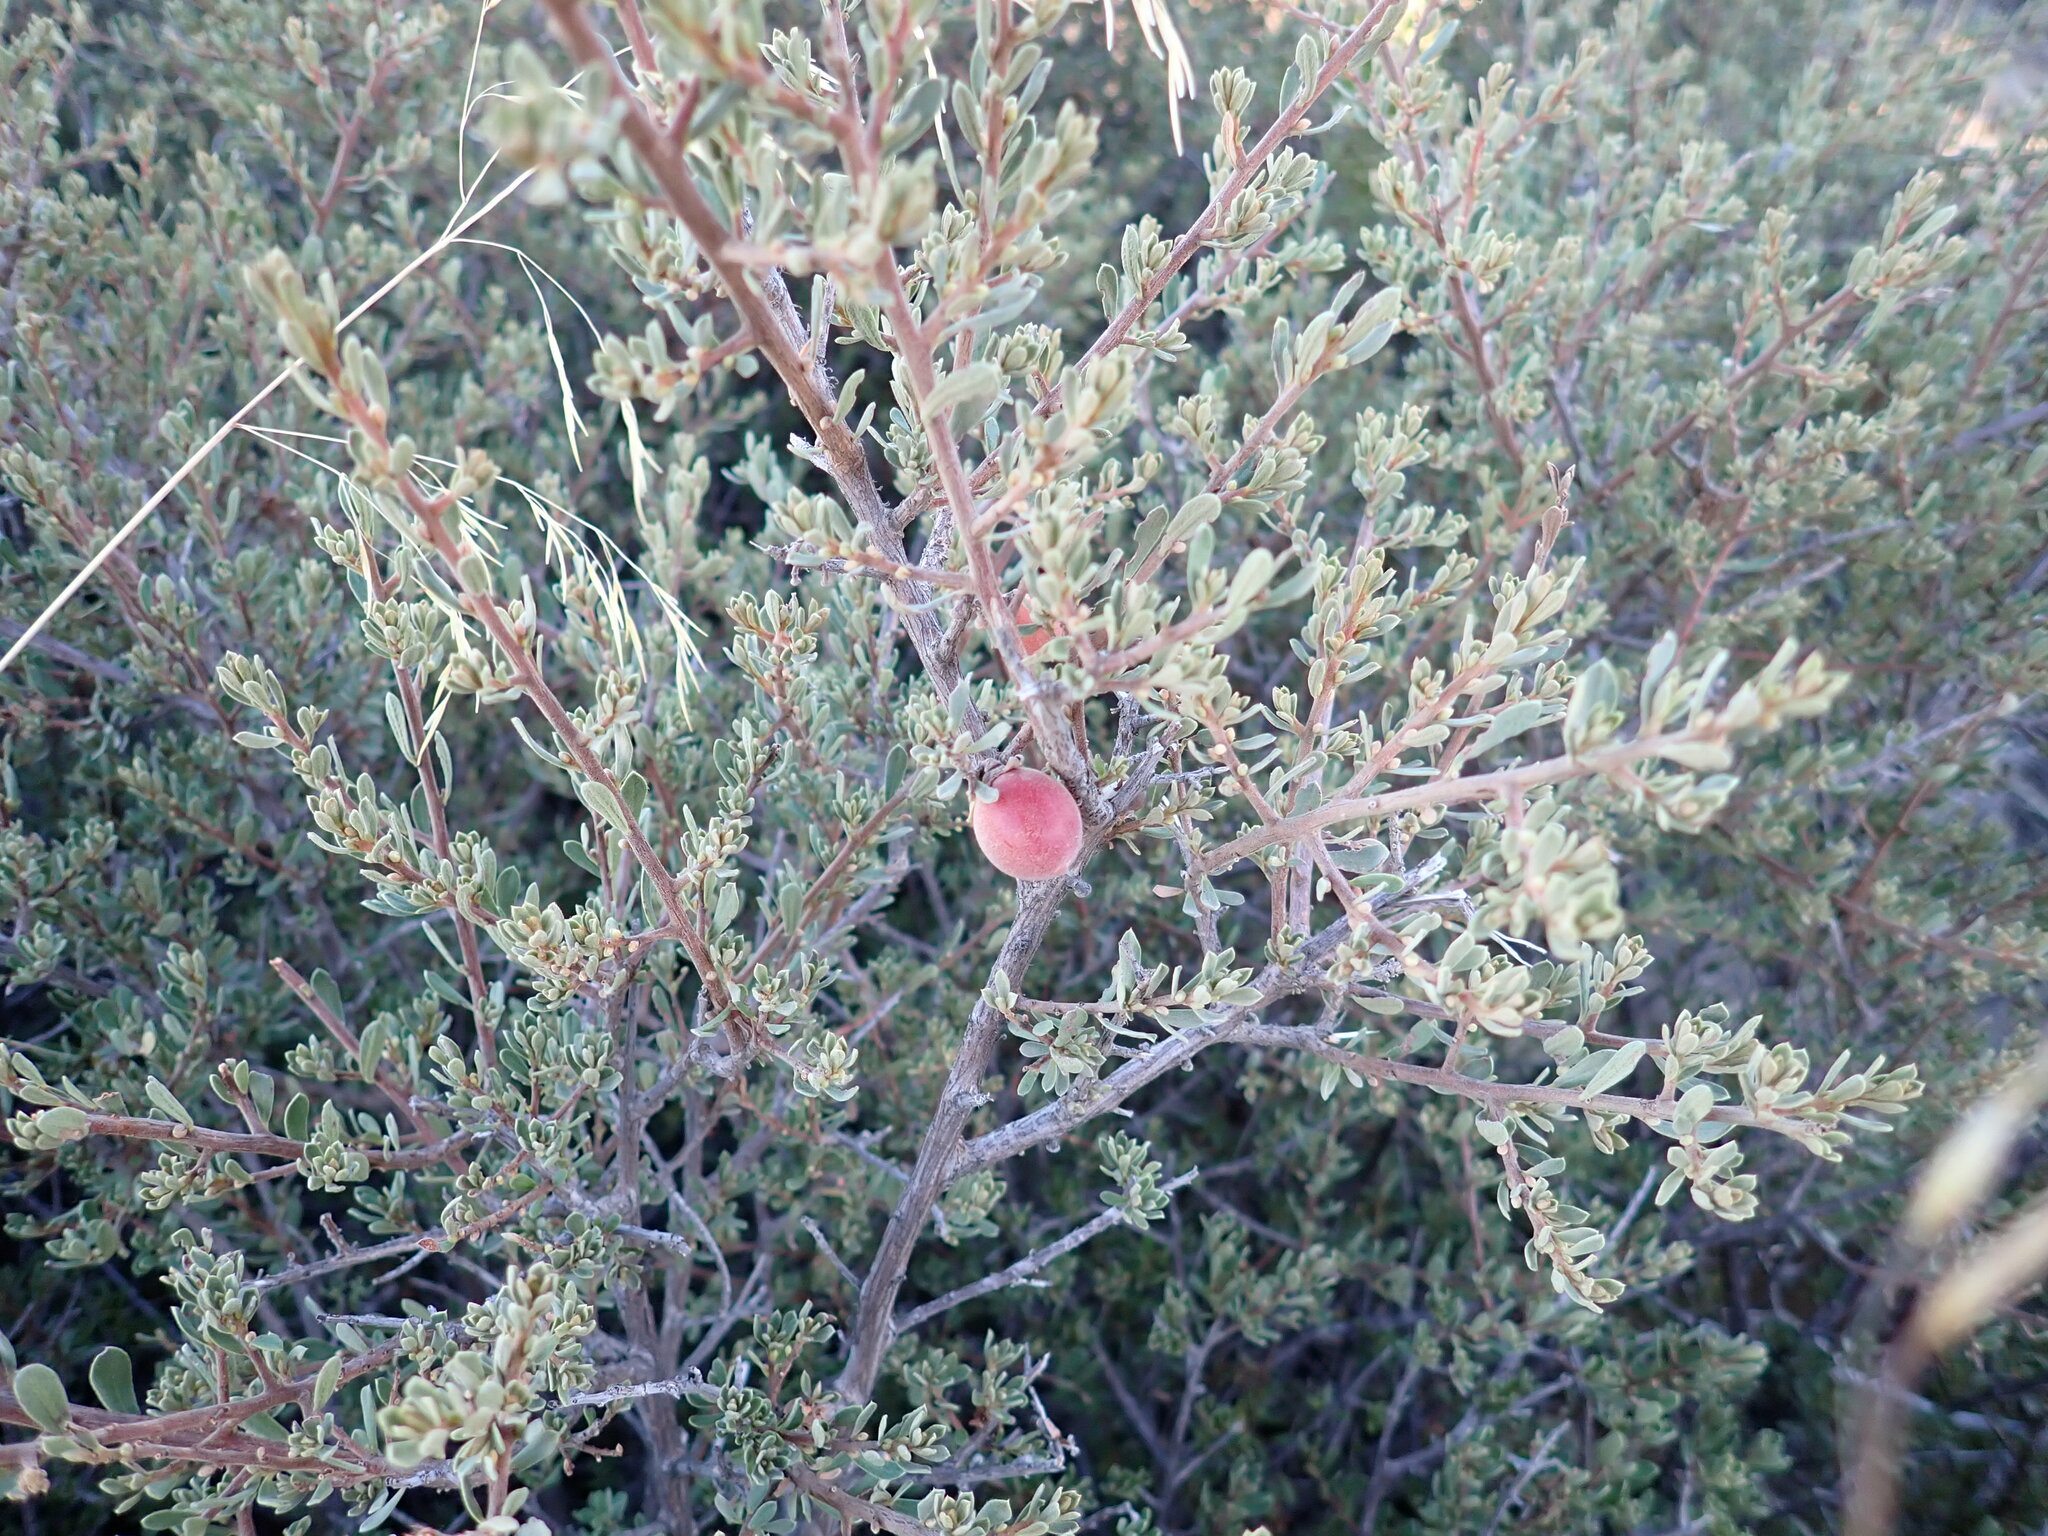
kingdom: Plantae
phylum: Tracheophyta
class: Magnoliopsida
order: Ericales
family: Ebenaceae
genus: Diospyros
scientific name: Diospyros pubescens
